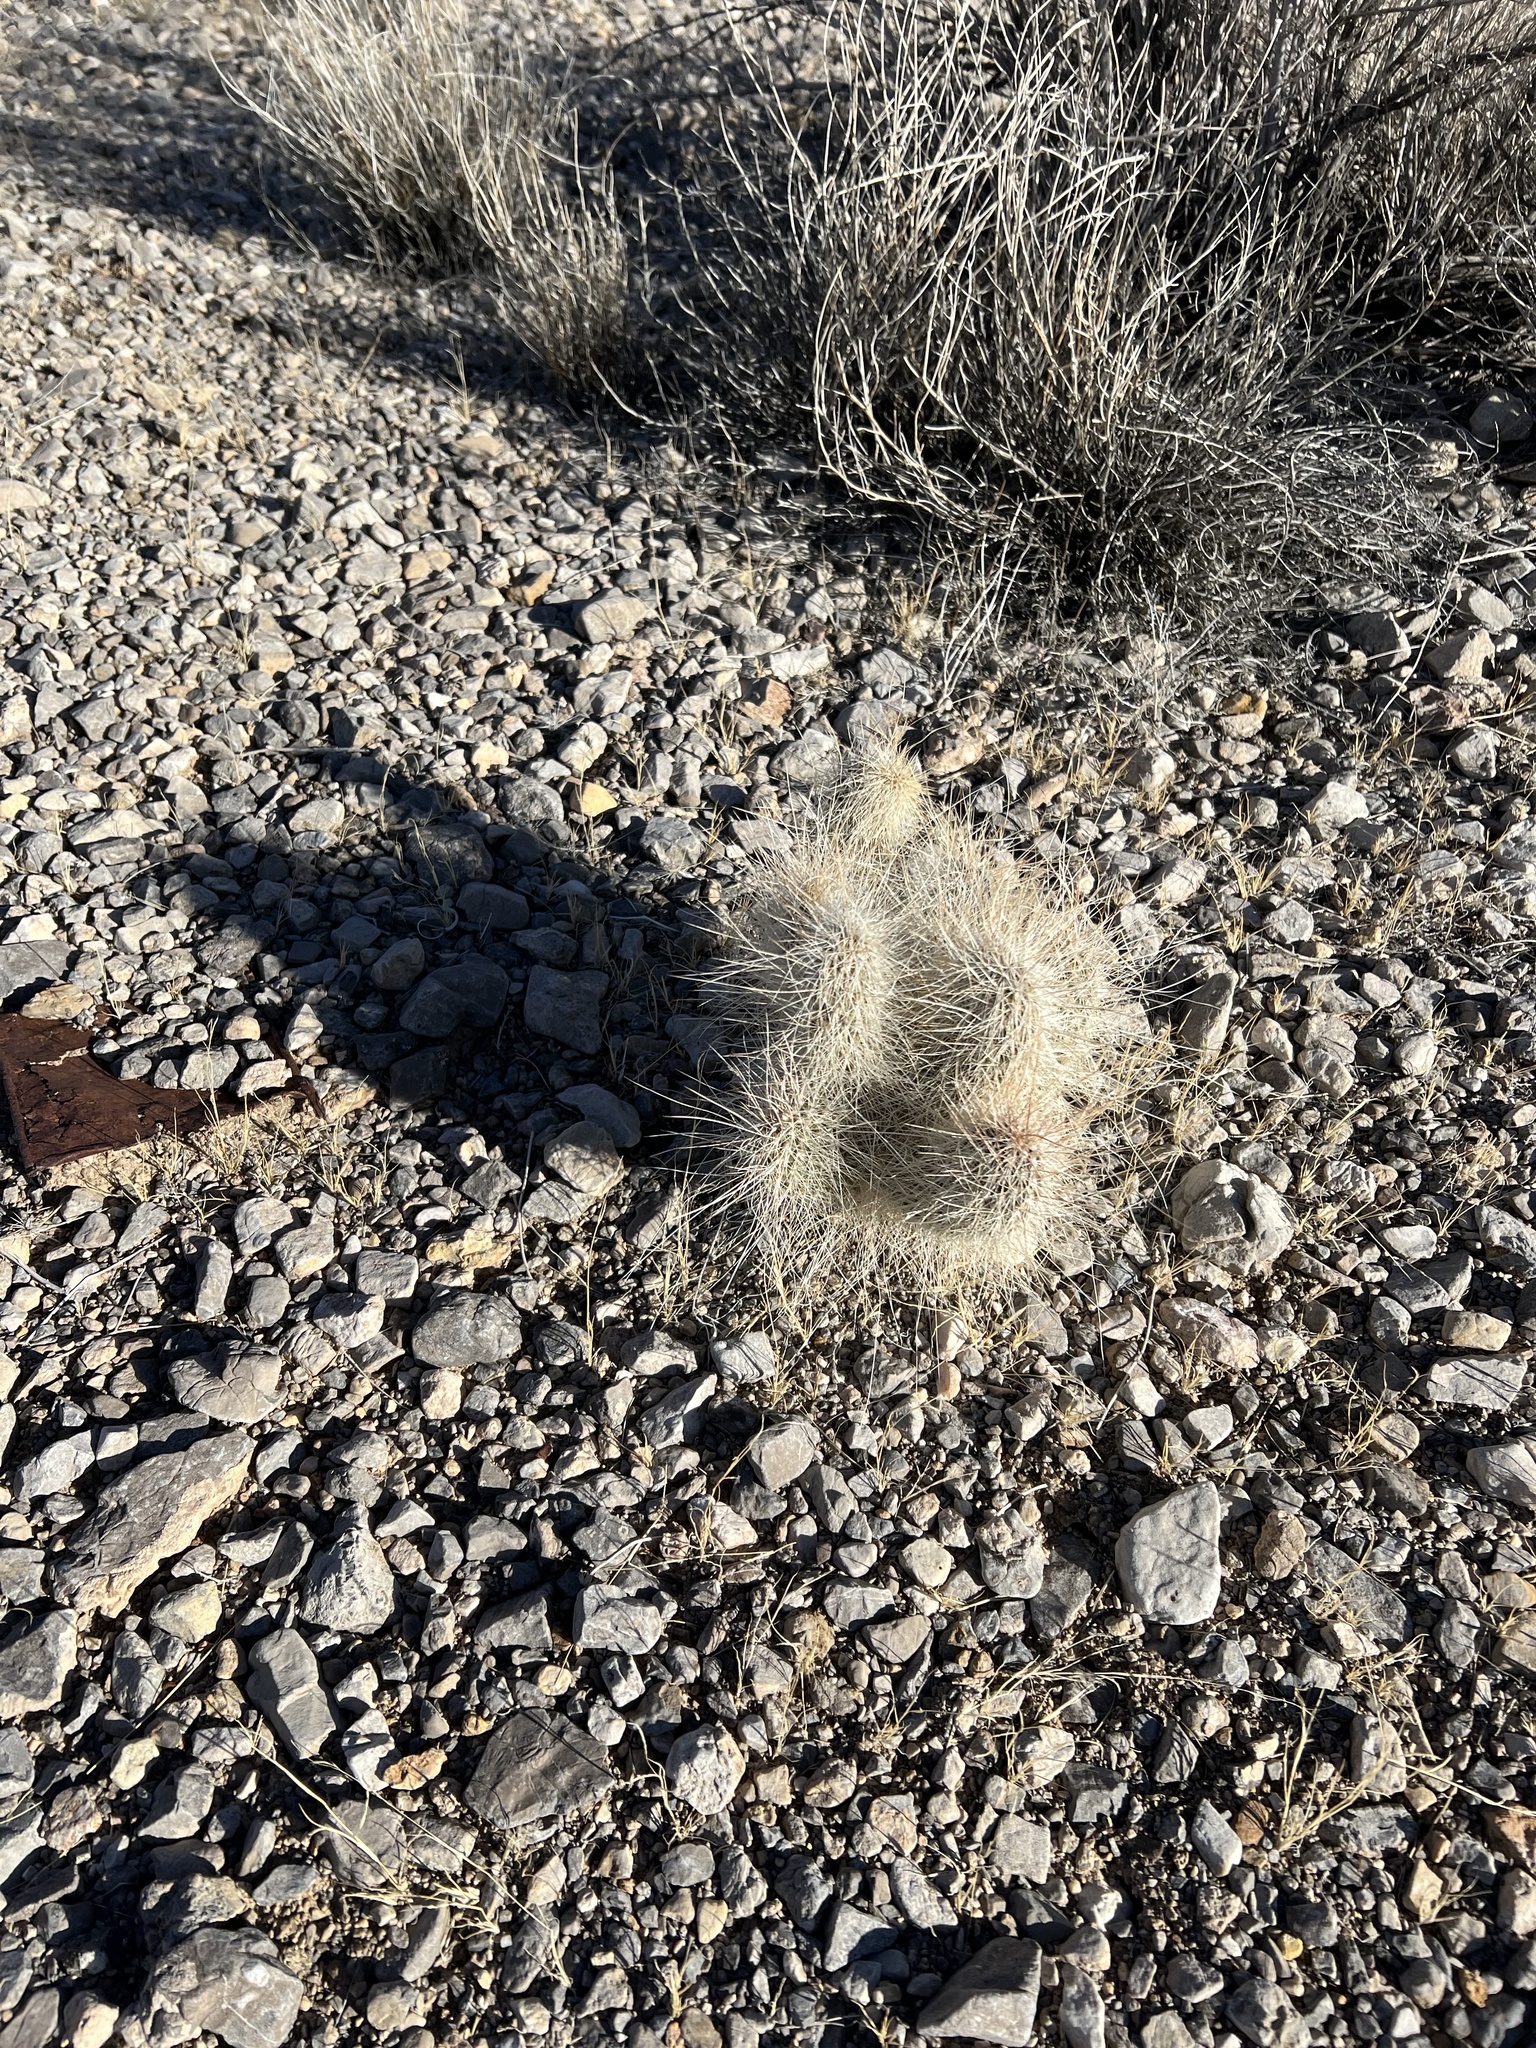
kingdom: Plantae
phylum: Tracheophyta
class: Magnoliopsida
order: Caryophyllales
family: Cactaceae
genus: Opuntia
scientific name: Opuntia polyacantha
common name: Plains prickly-pear
